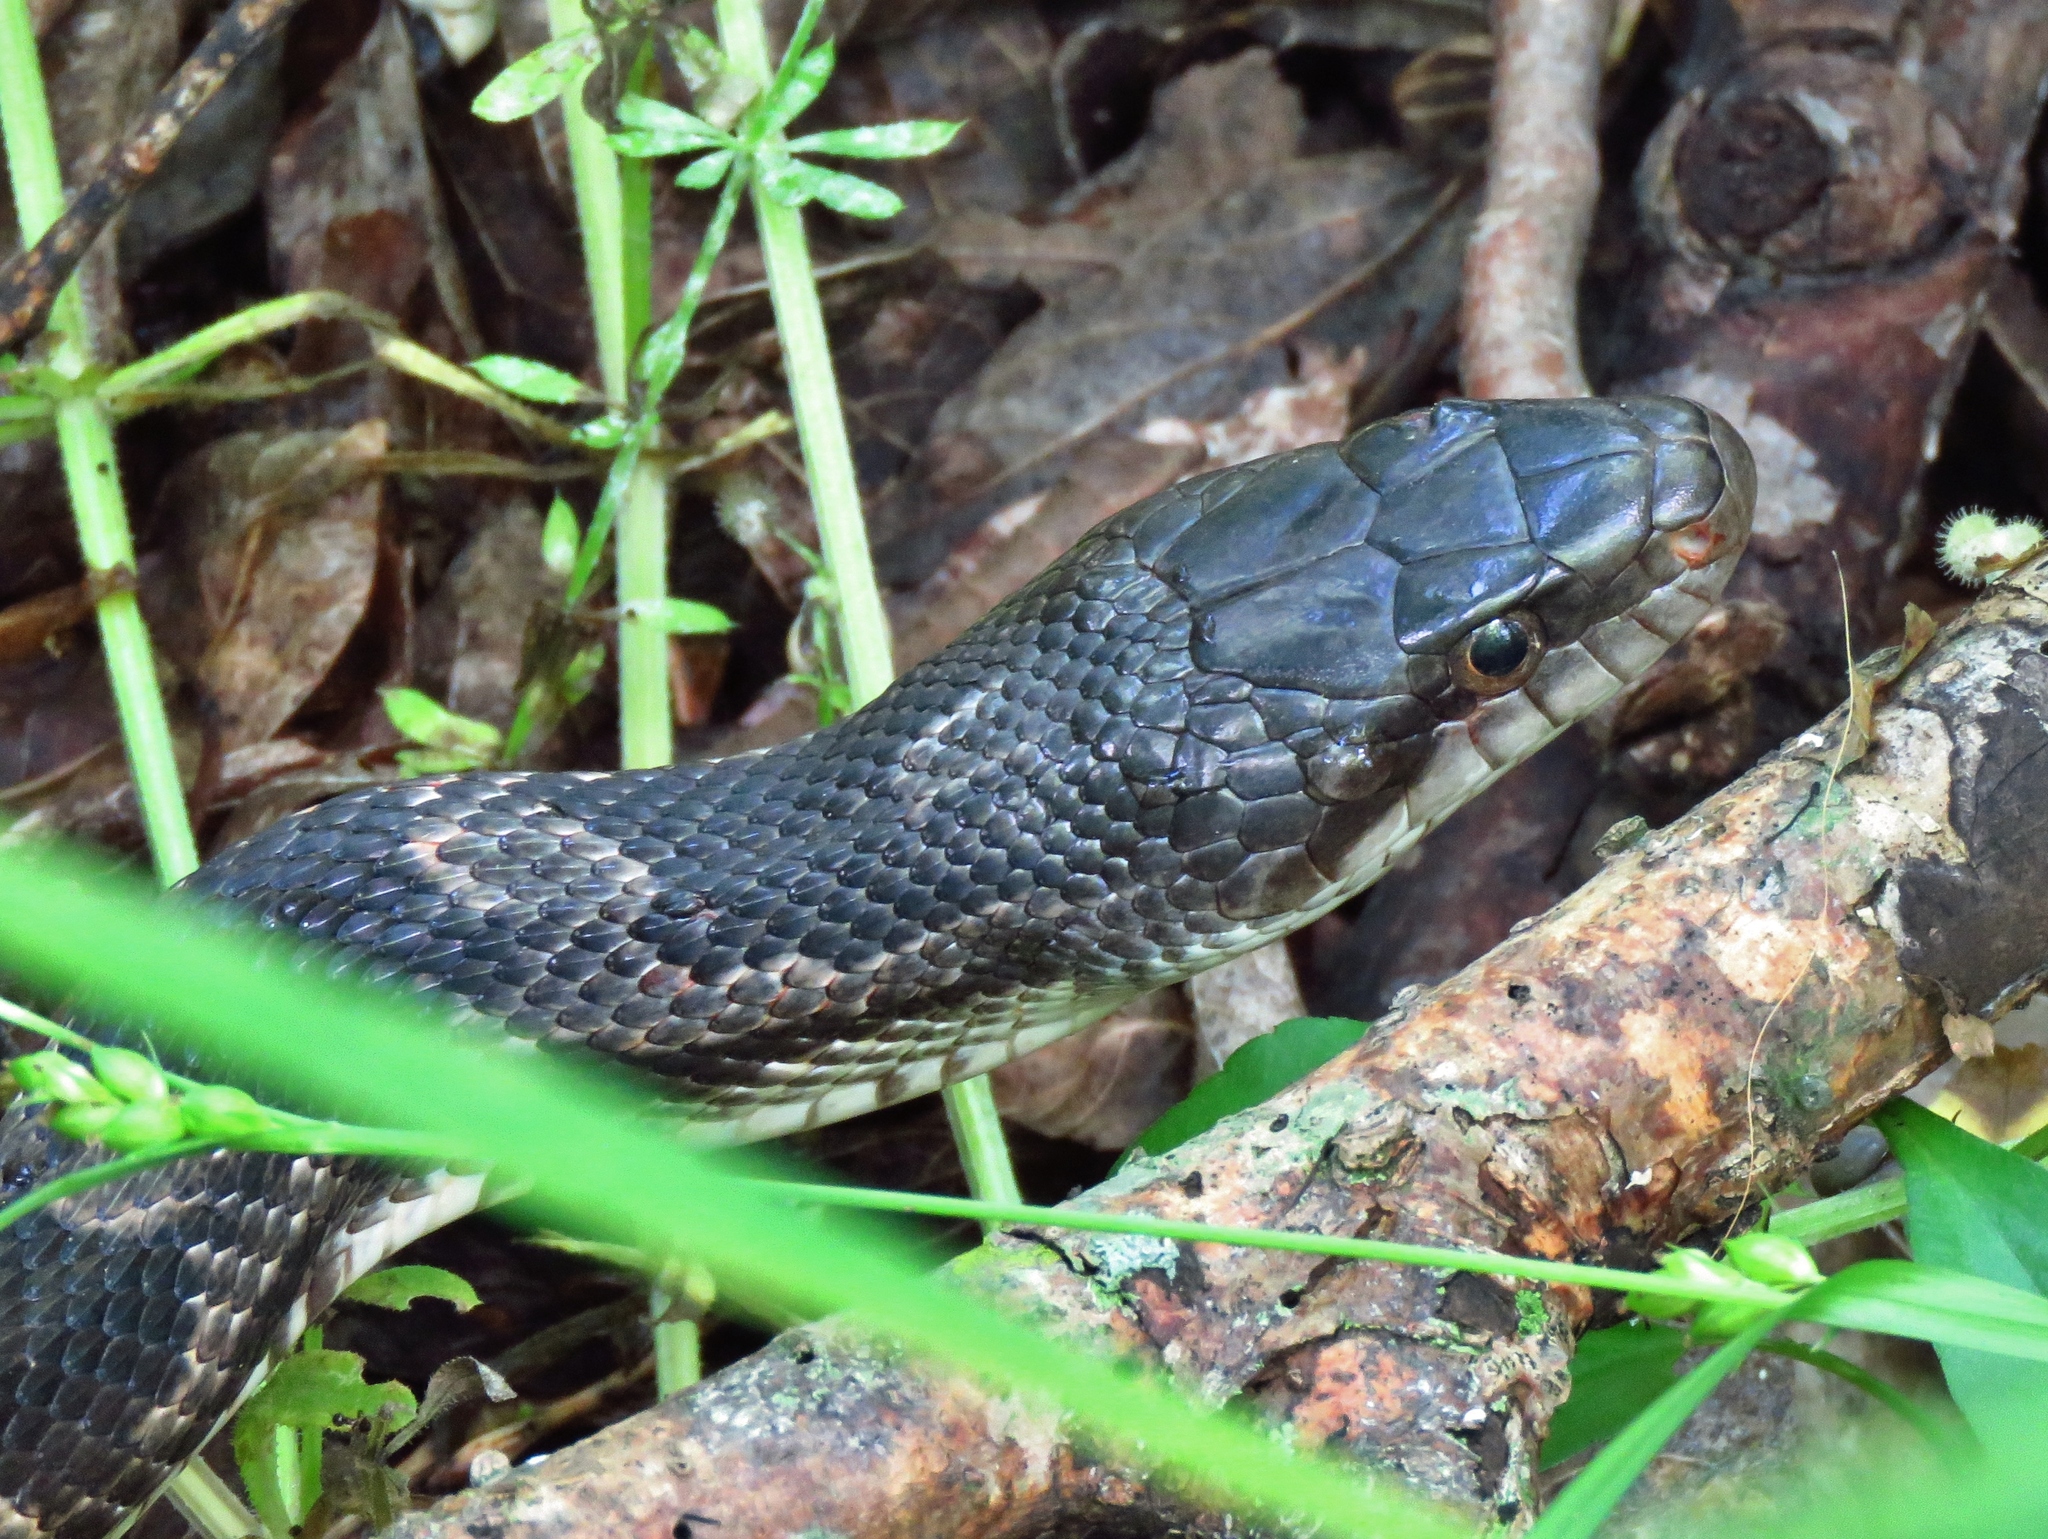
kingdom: Animalia
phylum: Chordata
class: Squamata
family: Colubridae
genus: Pantherophis
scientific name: Pantherophis obsoletus
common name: Black rat snake
